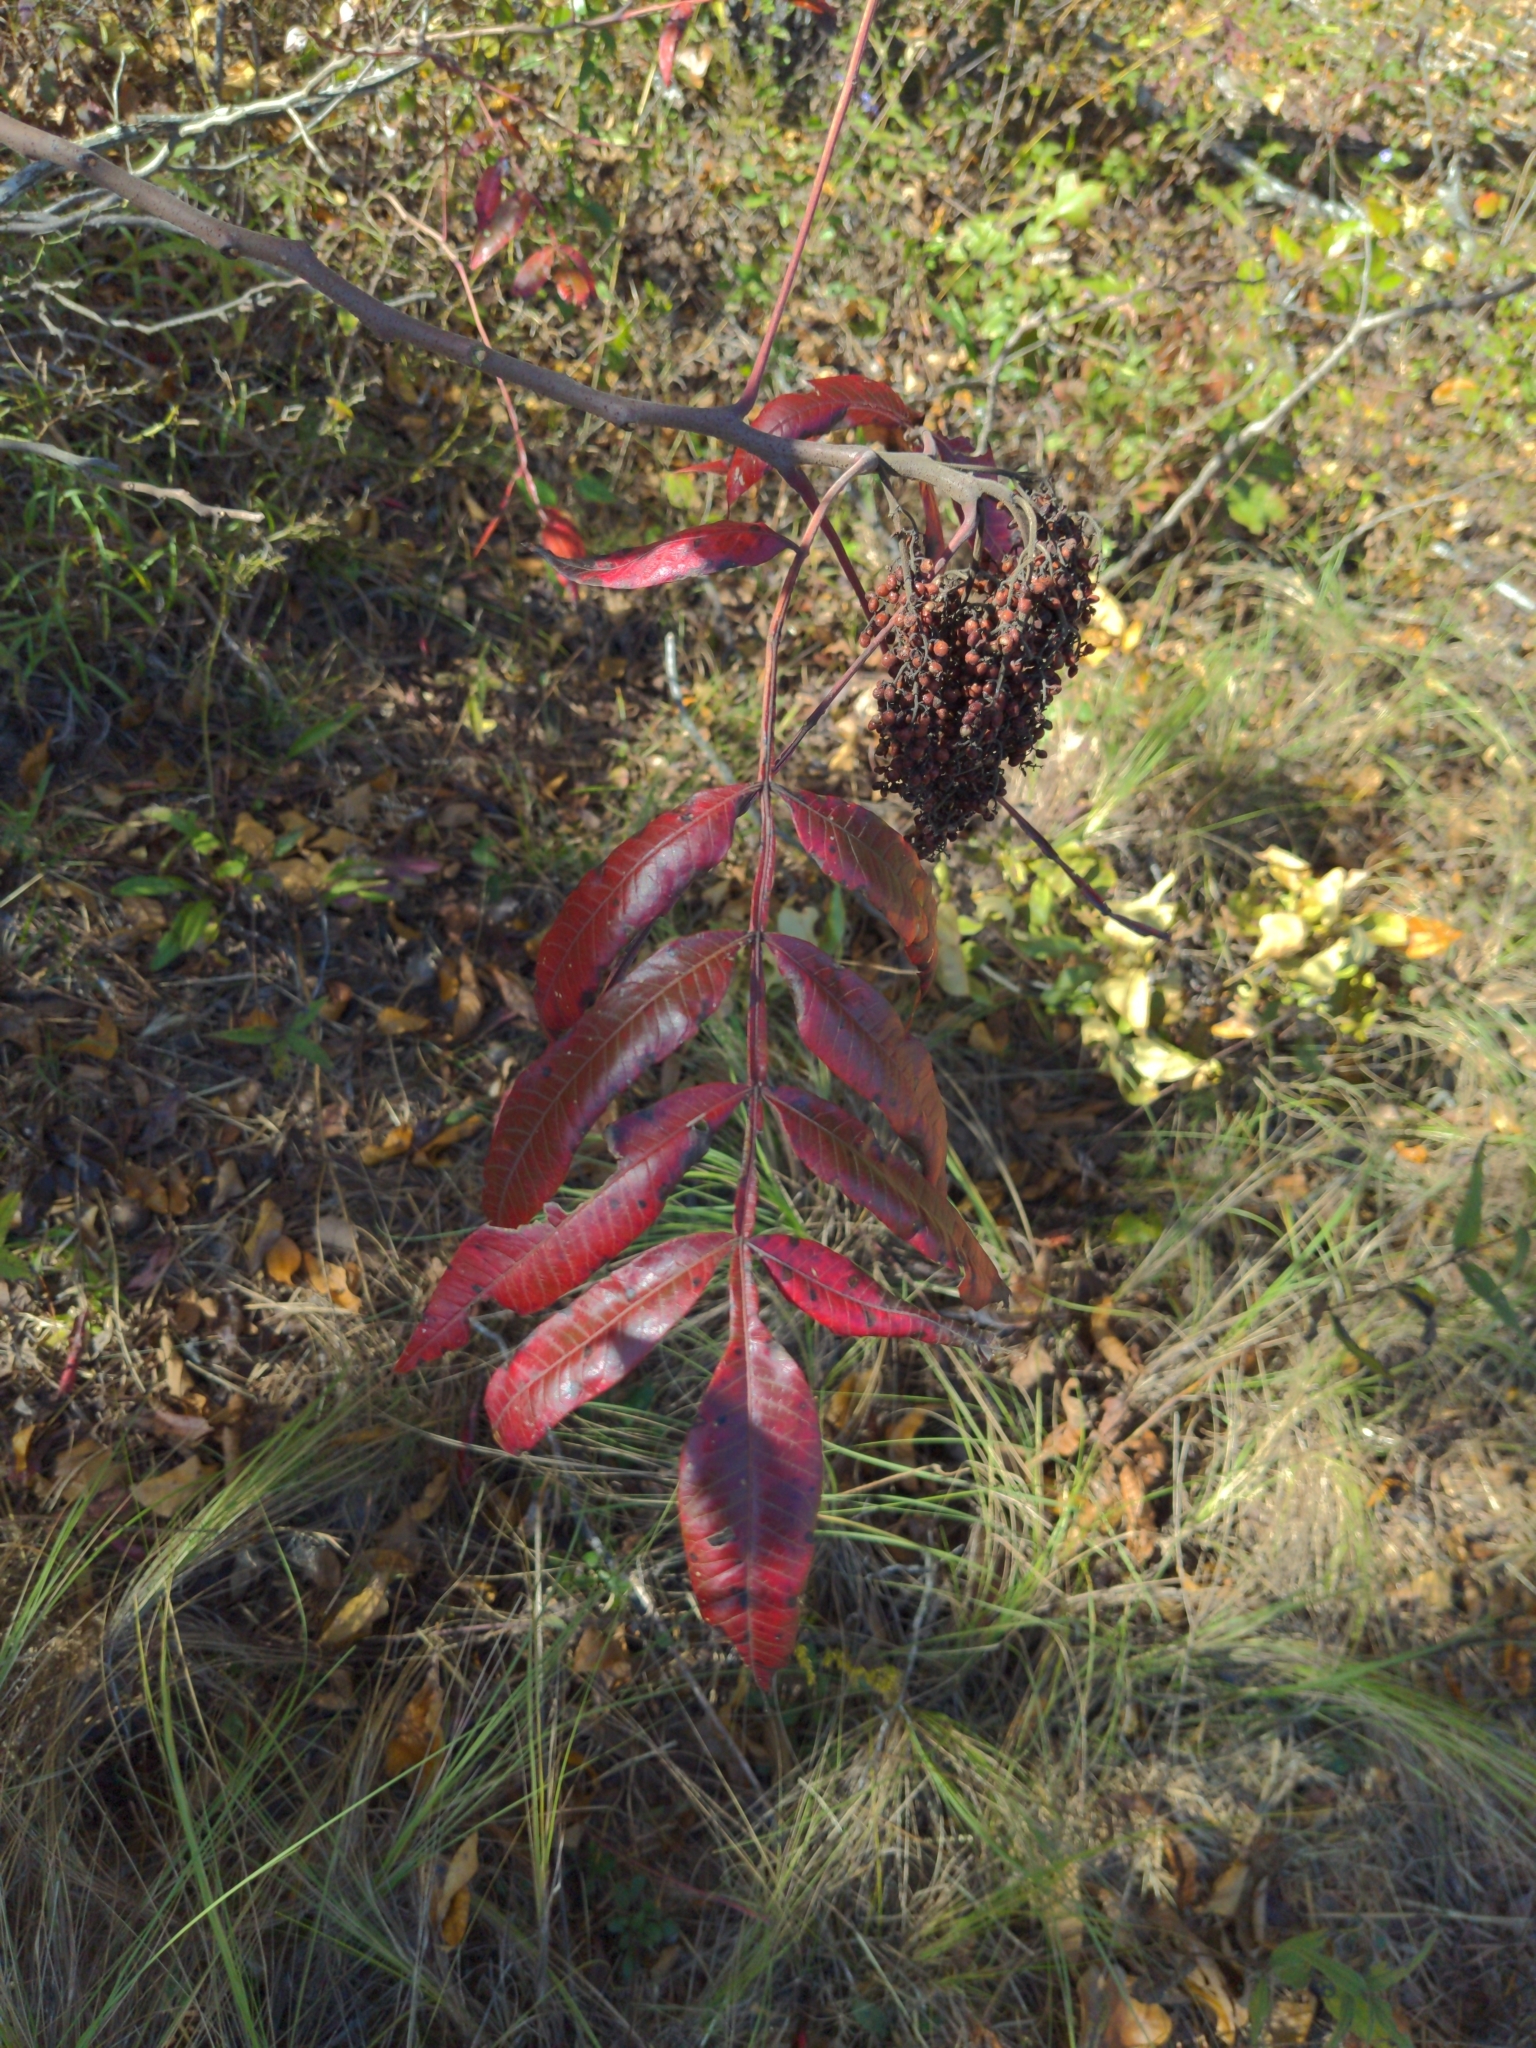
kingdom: Plantae
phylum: Tracheophyta
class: Magnoliopsida
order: Sapindales
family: Anacardiaceae
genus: Rhus
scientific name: Rhus copallina
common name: Shining sumac
